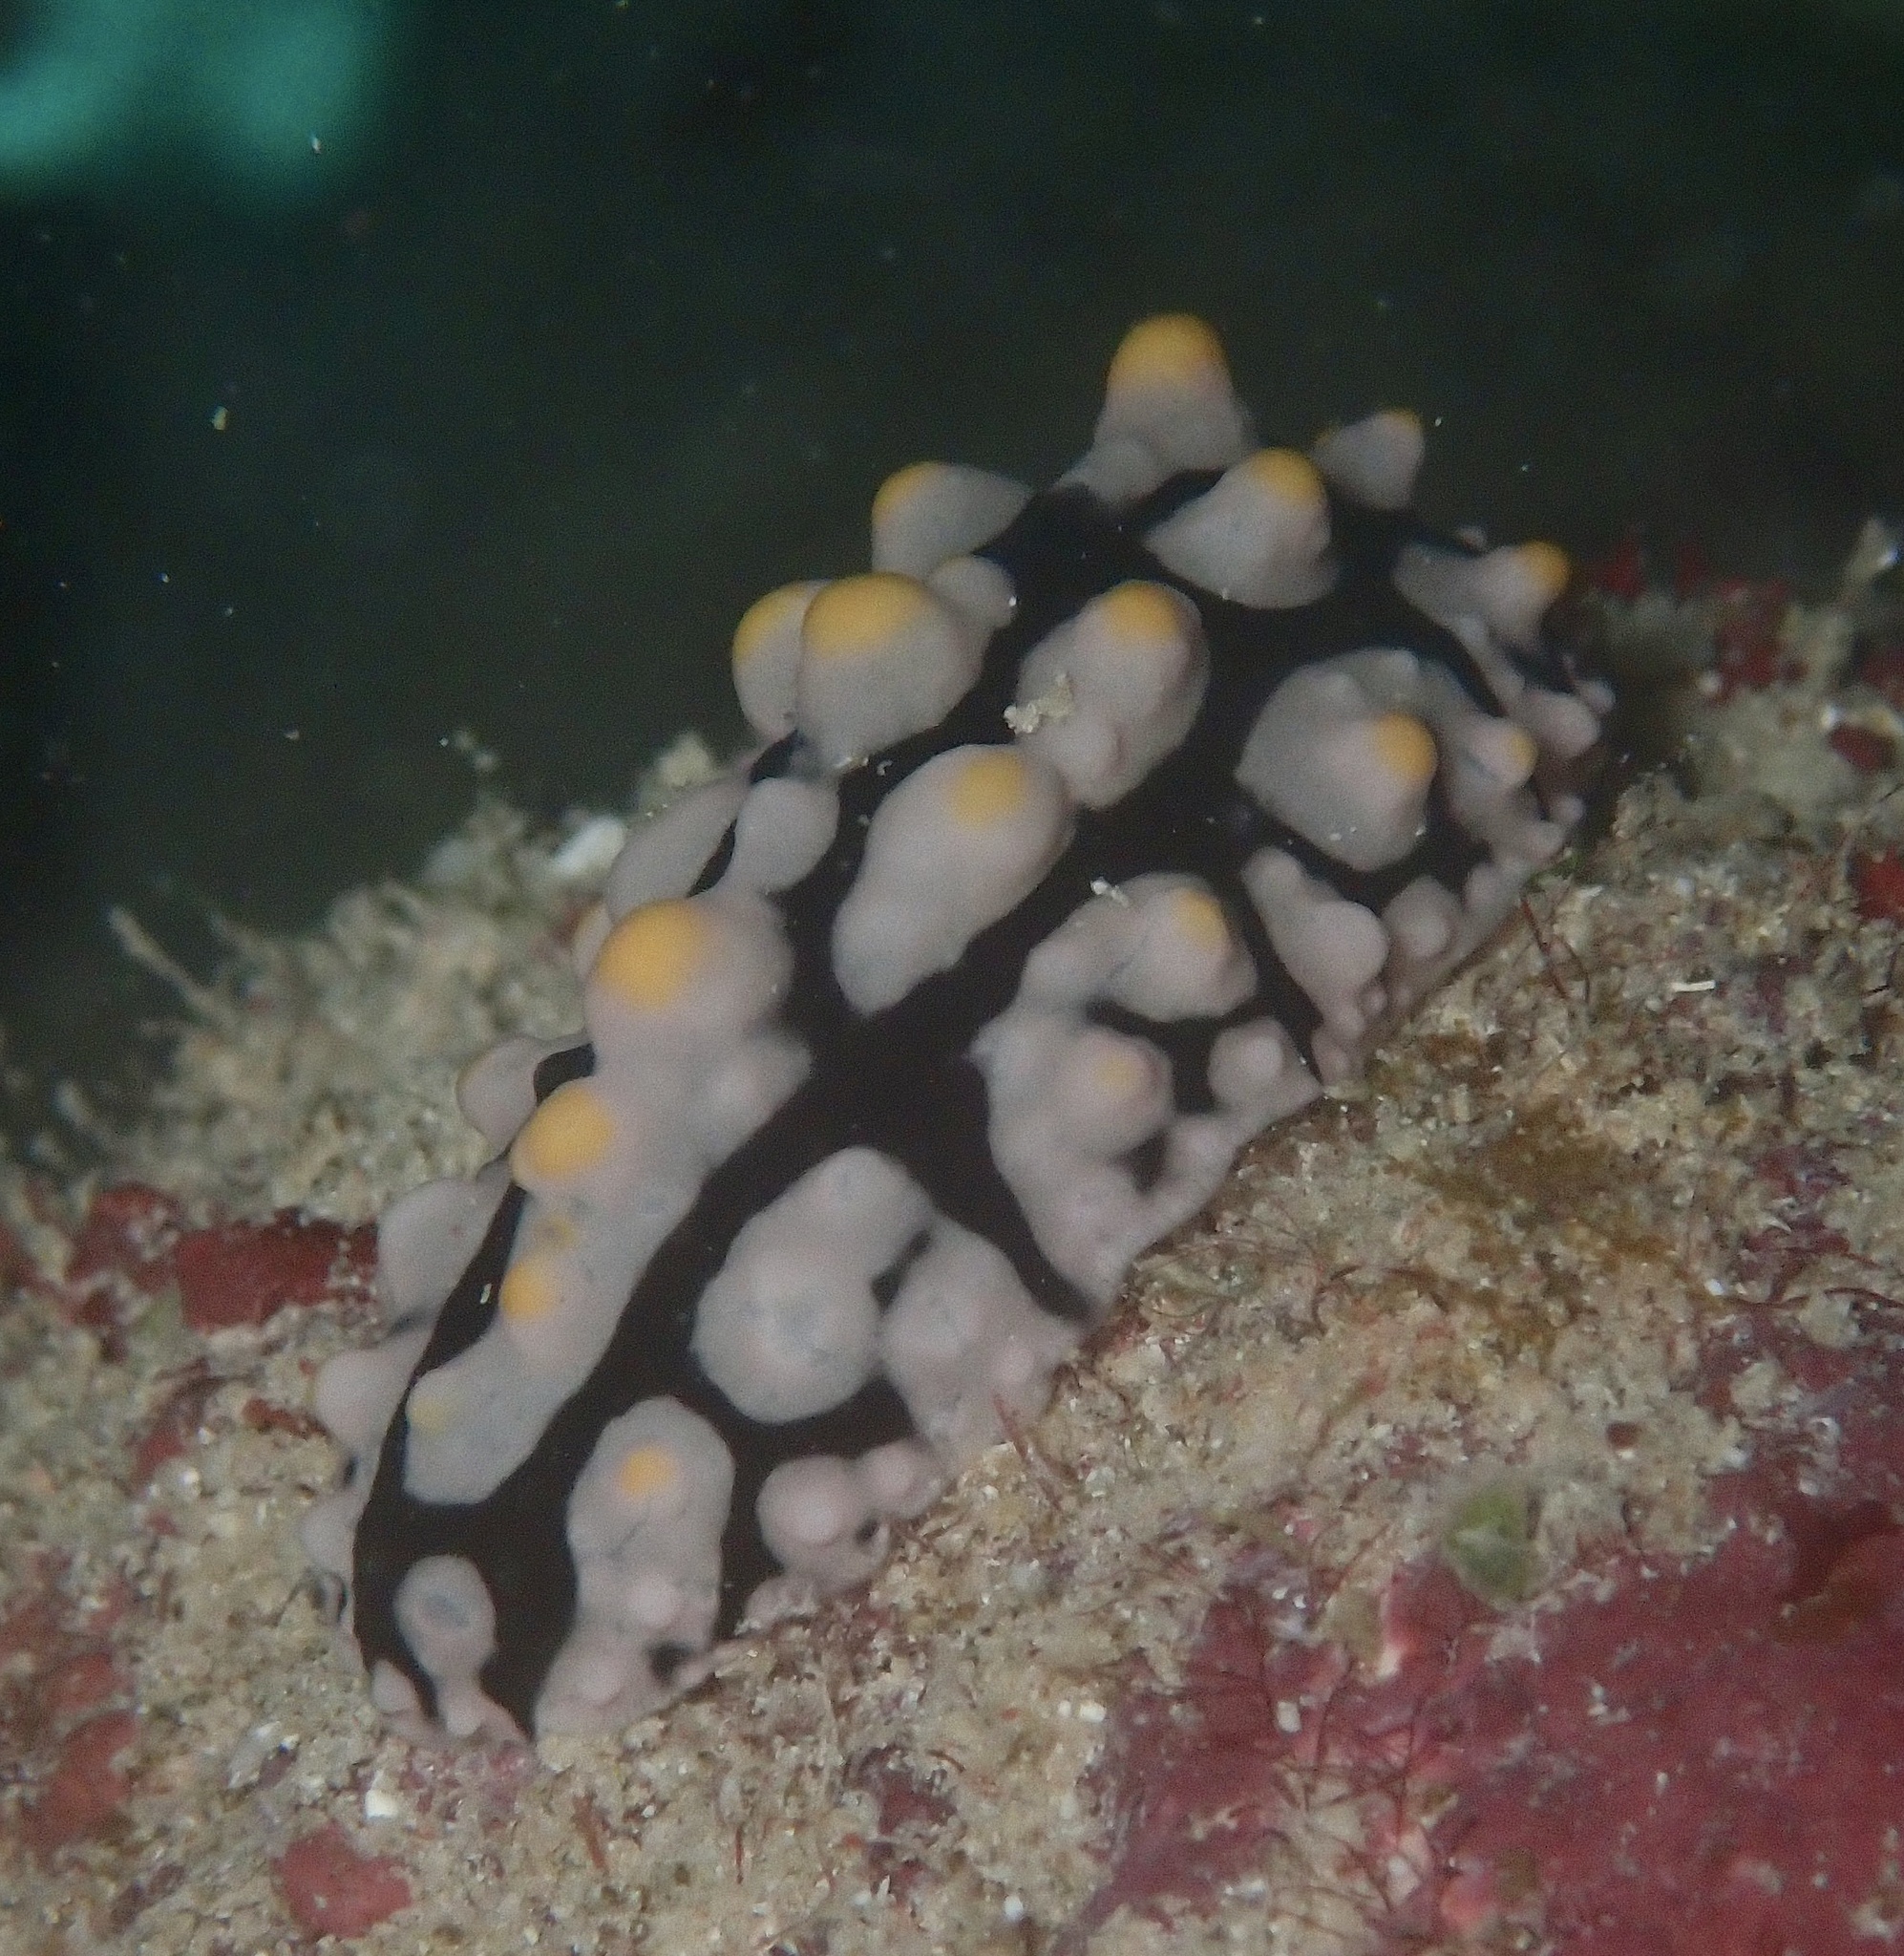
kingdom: Animalia
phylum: Mollusca
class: Gastropoda
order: Nudibranchia
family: Phyllidiidae
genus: Phyllidia
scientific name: Phyllidia multifaria
